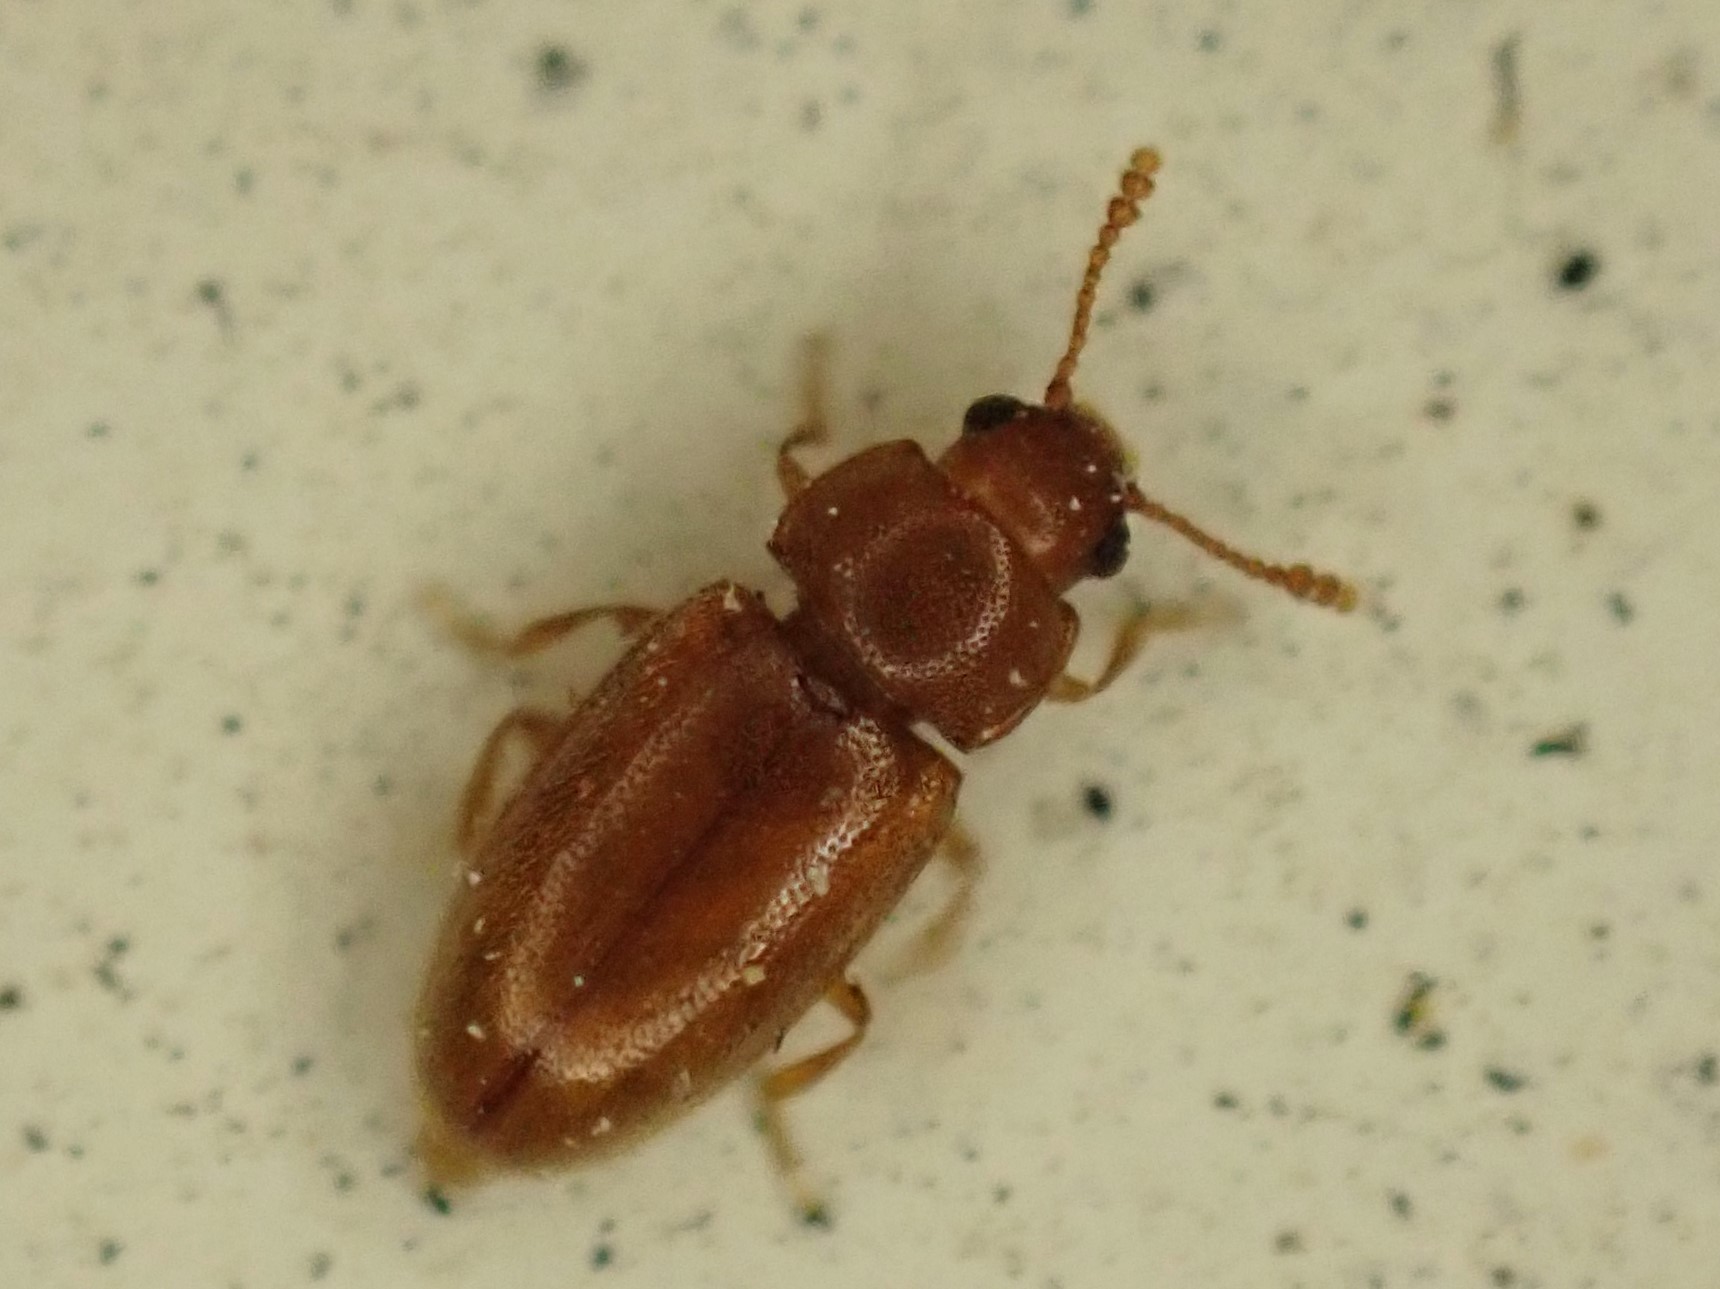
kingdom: Animalia
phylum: Arthropoda
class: Insecta
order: Coleoptera
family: Erotylidae
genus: Cryptophilus
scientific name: Cryptophilus integer
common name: Pleasing fungus beetle
